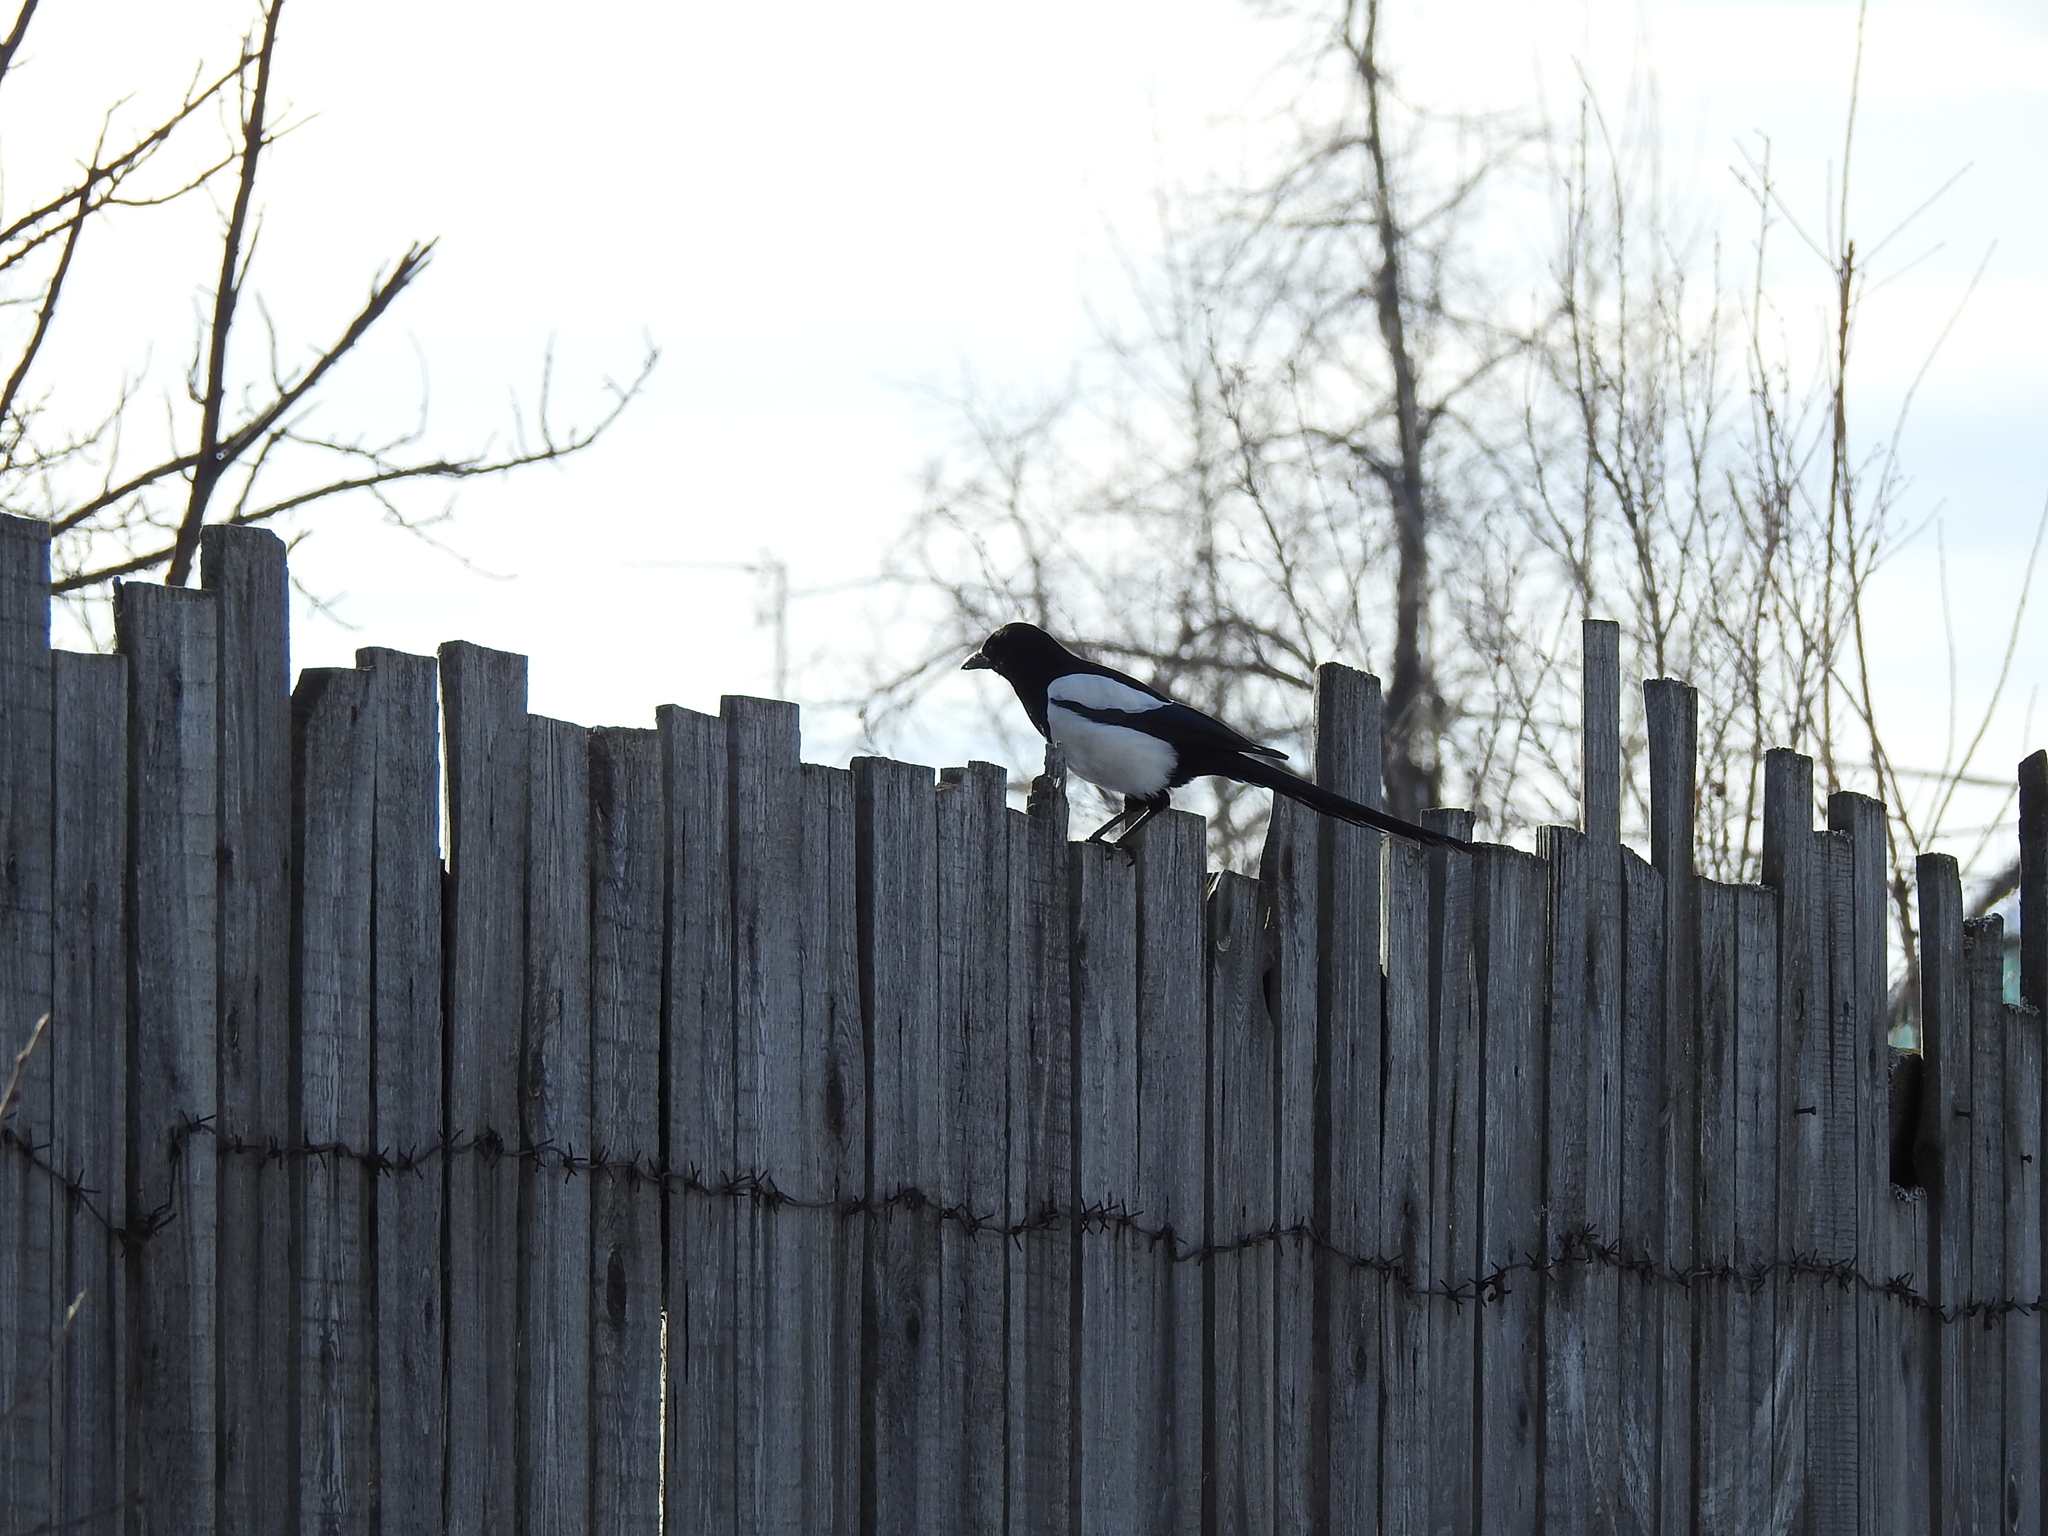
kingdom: Animalia
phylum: Chordata
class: Aves
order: Passeriformes
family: Corvidae
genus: Pica
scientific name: Pica pica
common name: Eurasian magpie
